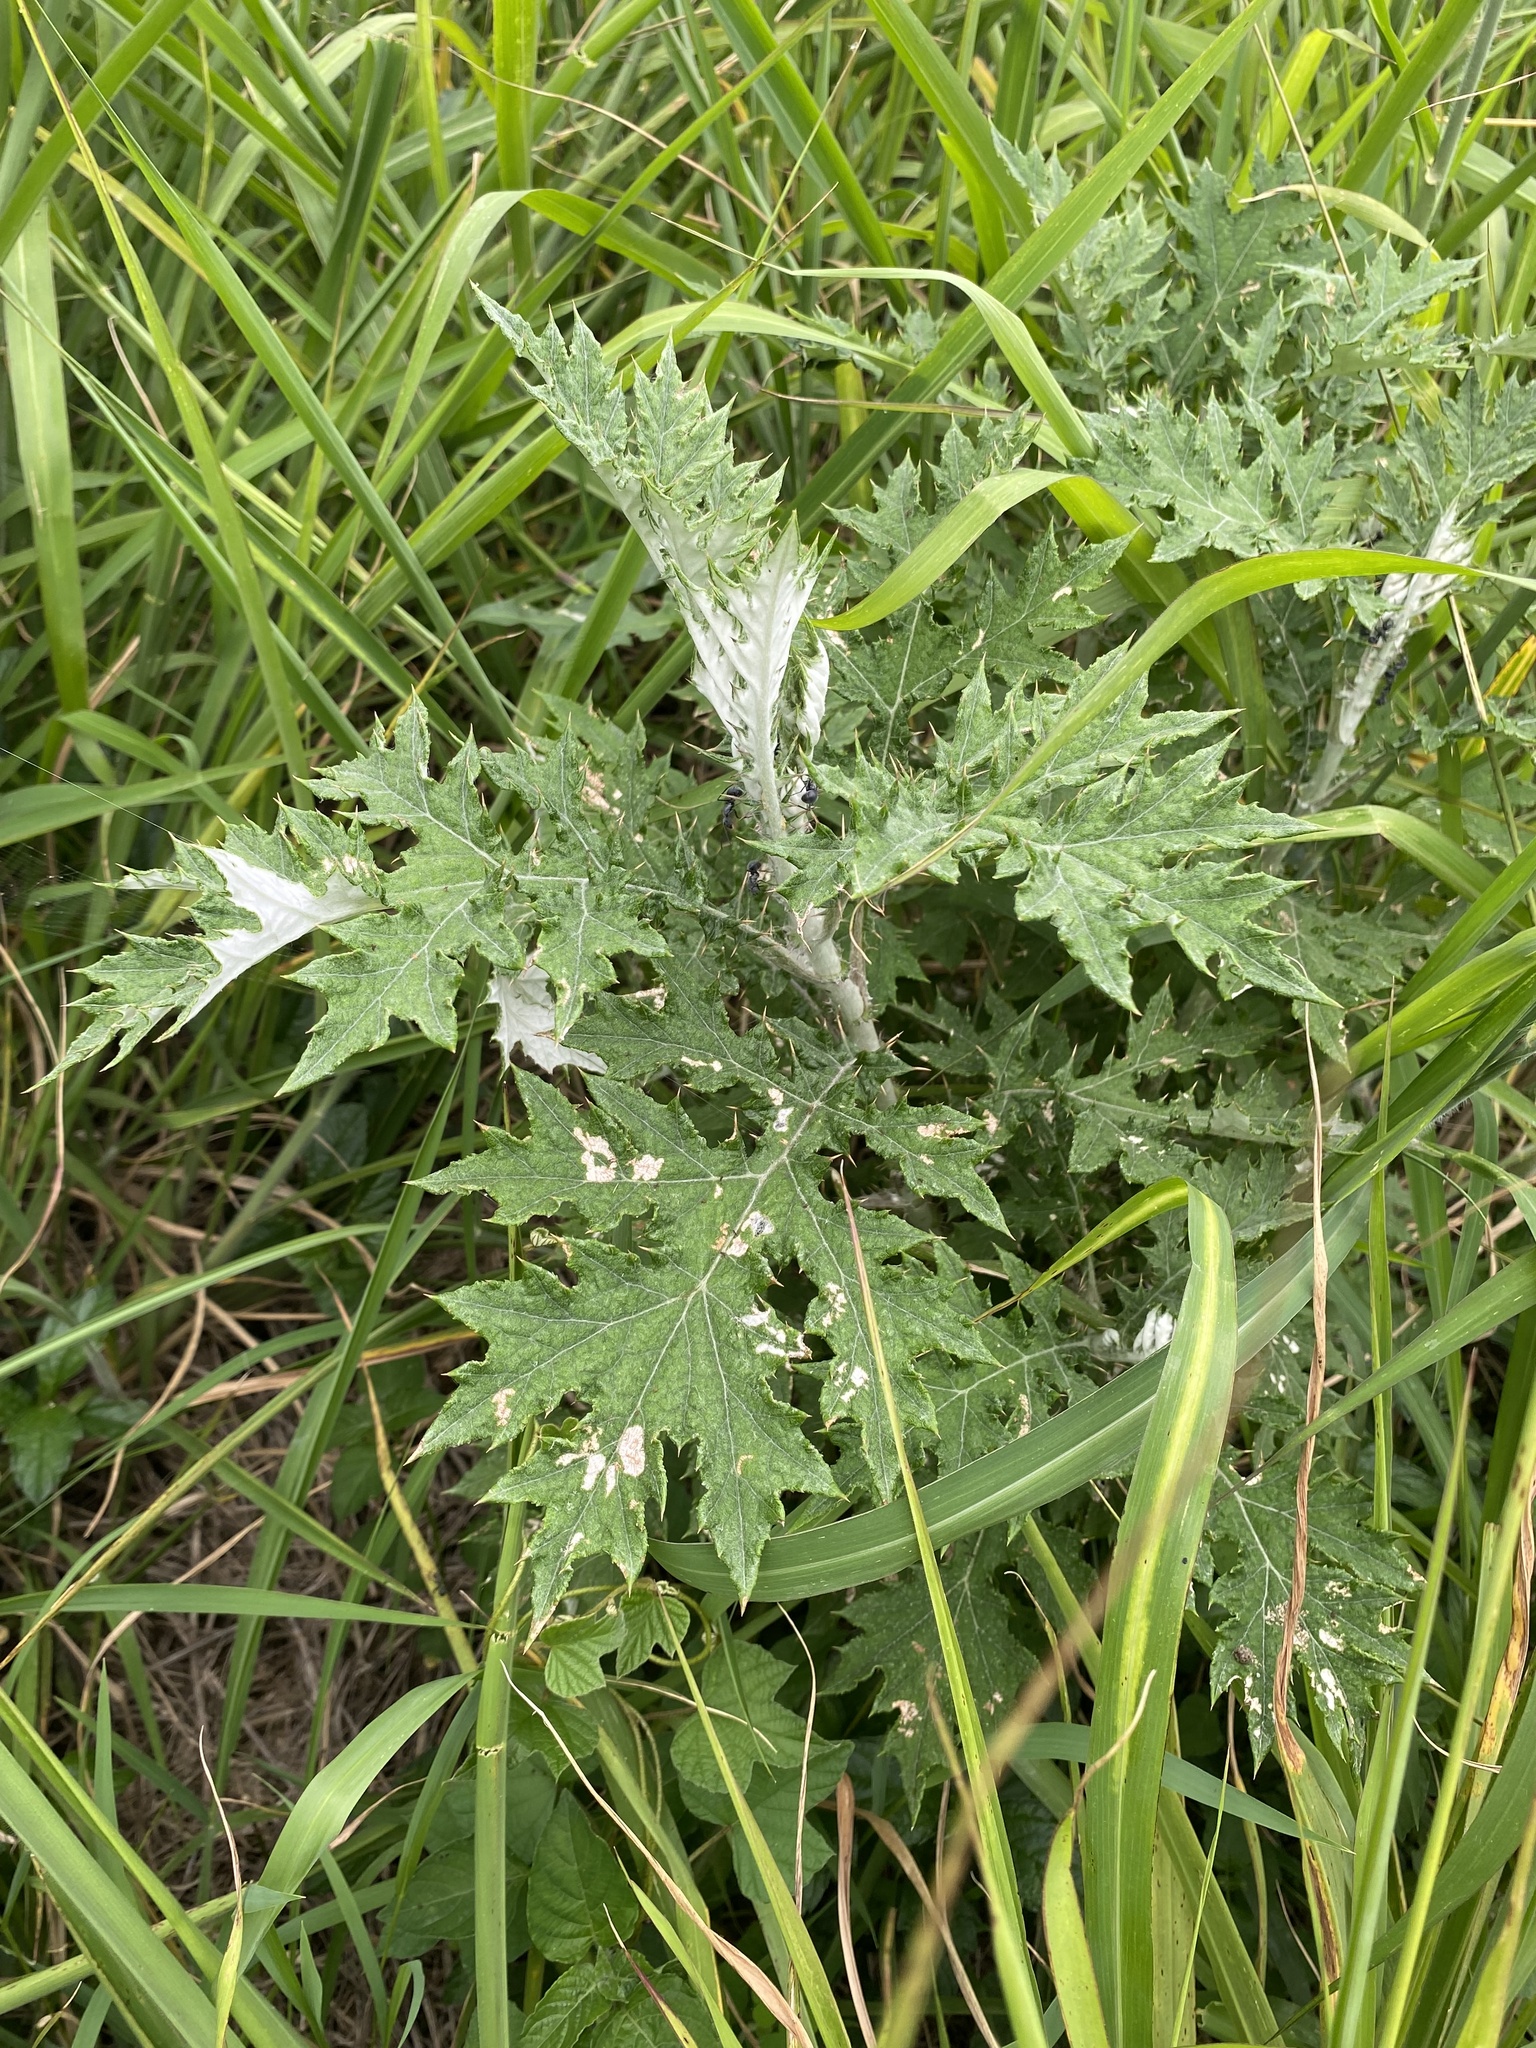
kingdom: Plantae
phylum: Tracheophyta
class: Magnoliopsida
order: Asterales
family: Asteraceae
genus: Berkheya
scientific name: Berkheya bipinnatifida
